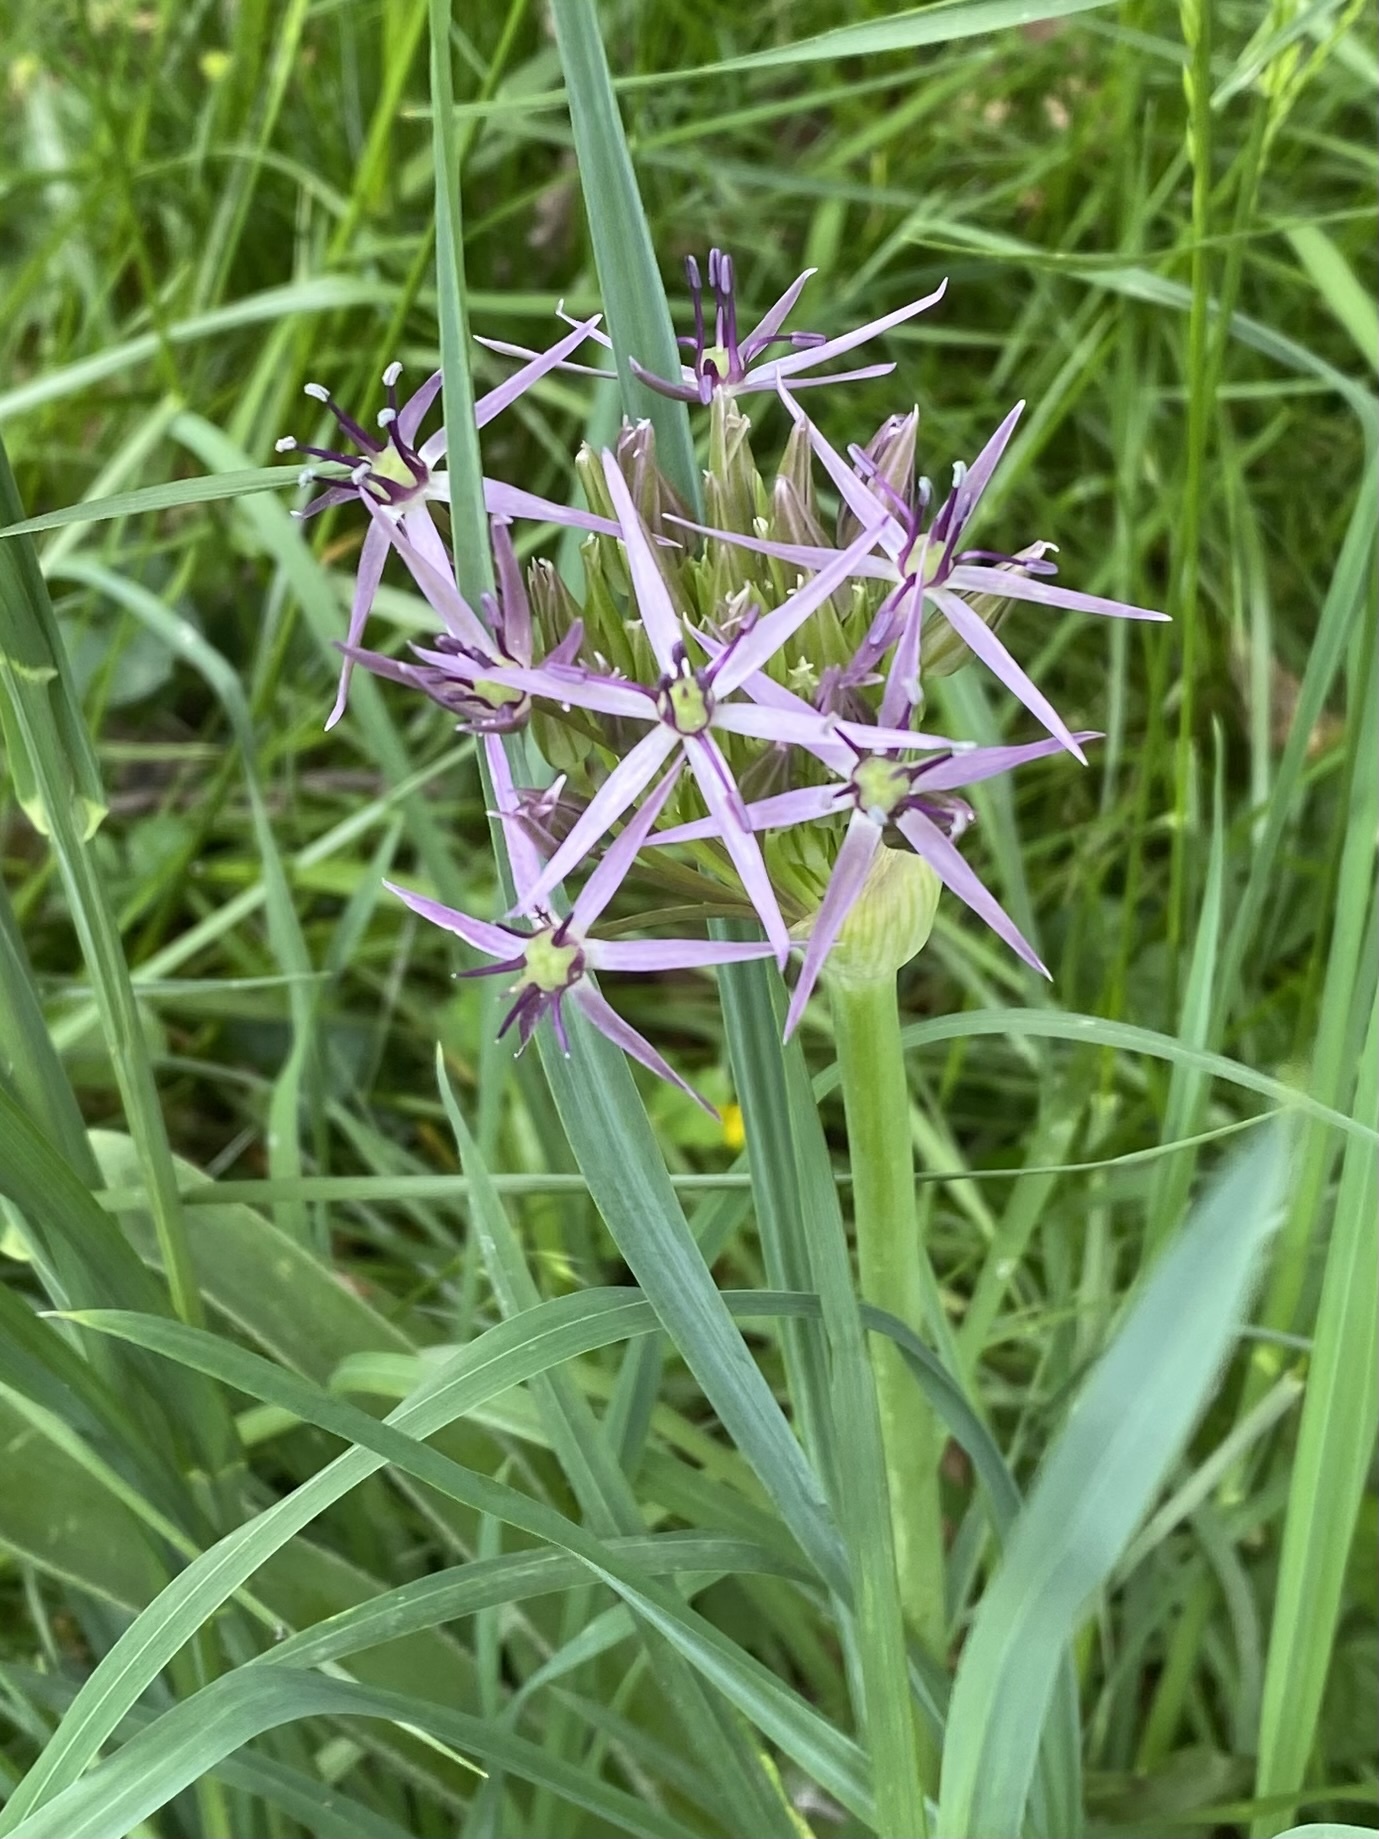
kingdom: Plantae
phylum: Tracheophyta
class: Liliopsida
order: Asparagales
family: Amaryllidaceae
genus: Allium
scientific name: Allium cristophii
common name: Persian onion
